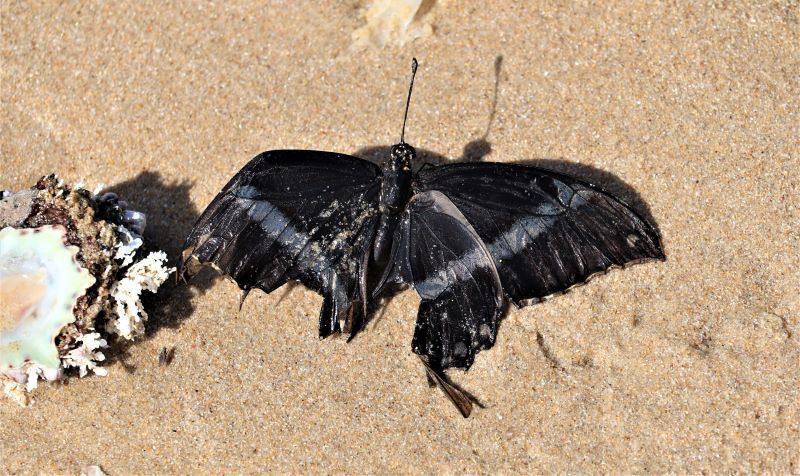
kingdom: Animalia
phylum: Arthropoda
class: Insecta
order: Lepidoptera
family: Papilionidae
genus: Papilio
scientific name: Papilio nireus
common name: Greenbanded swallowtail
